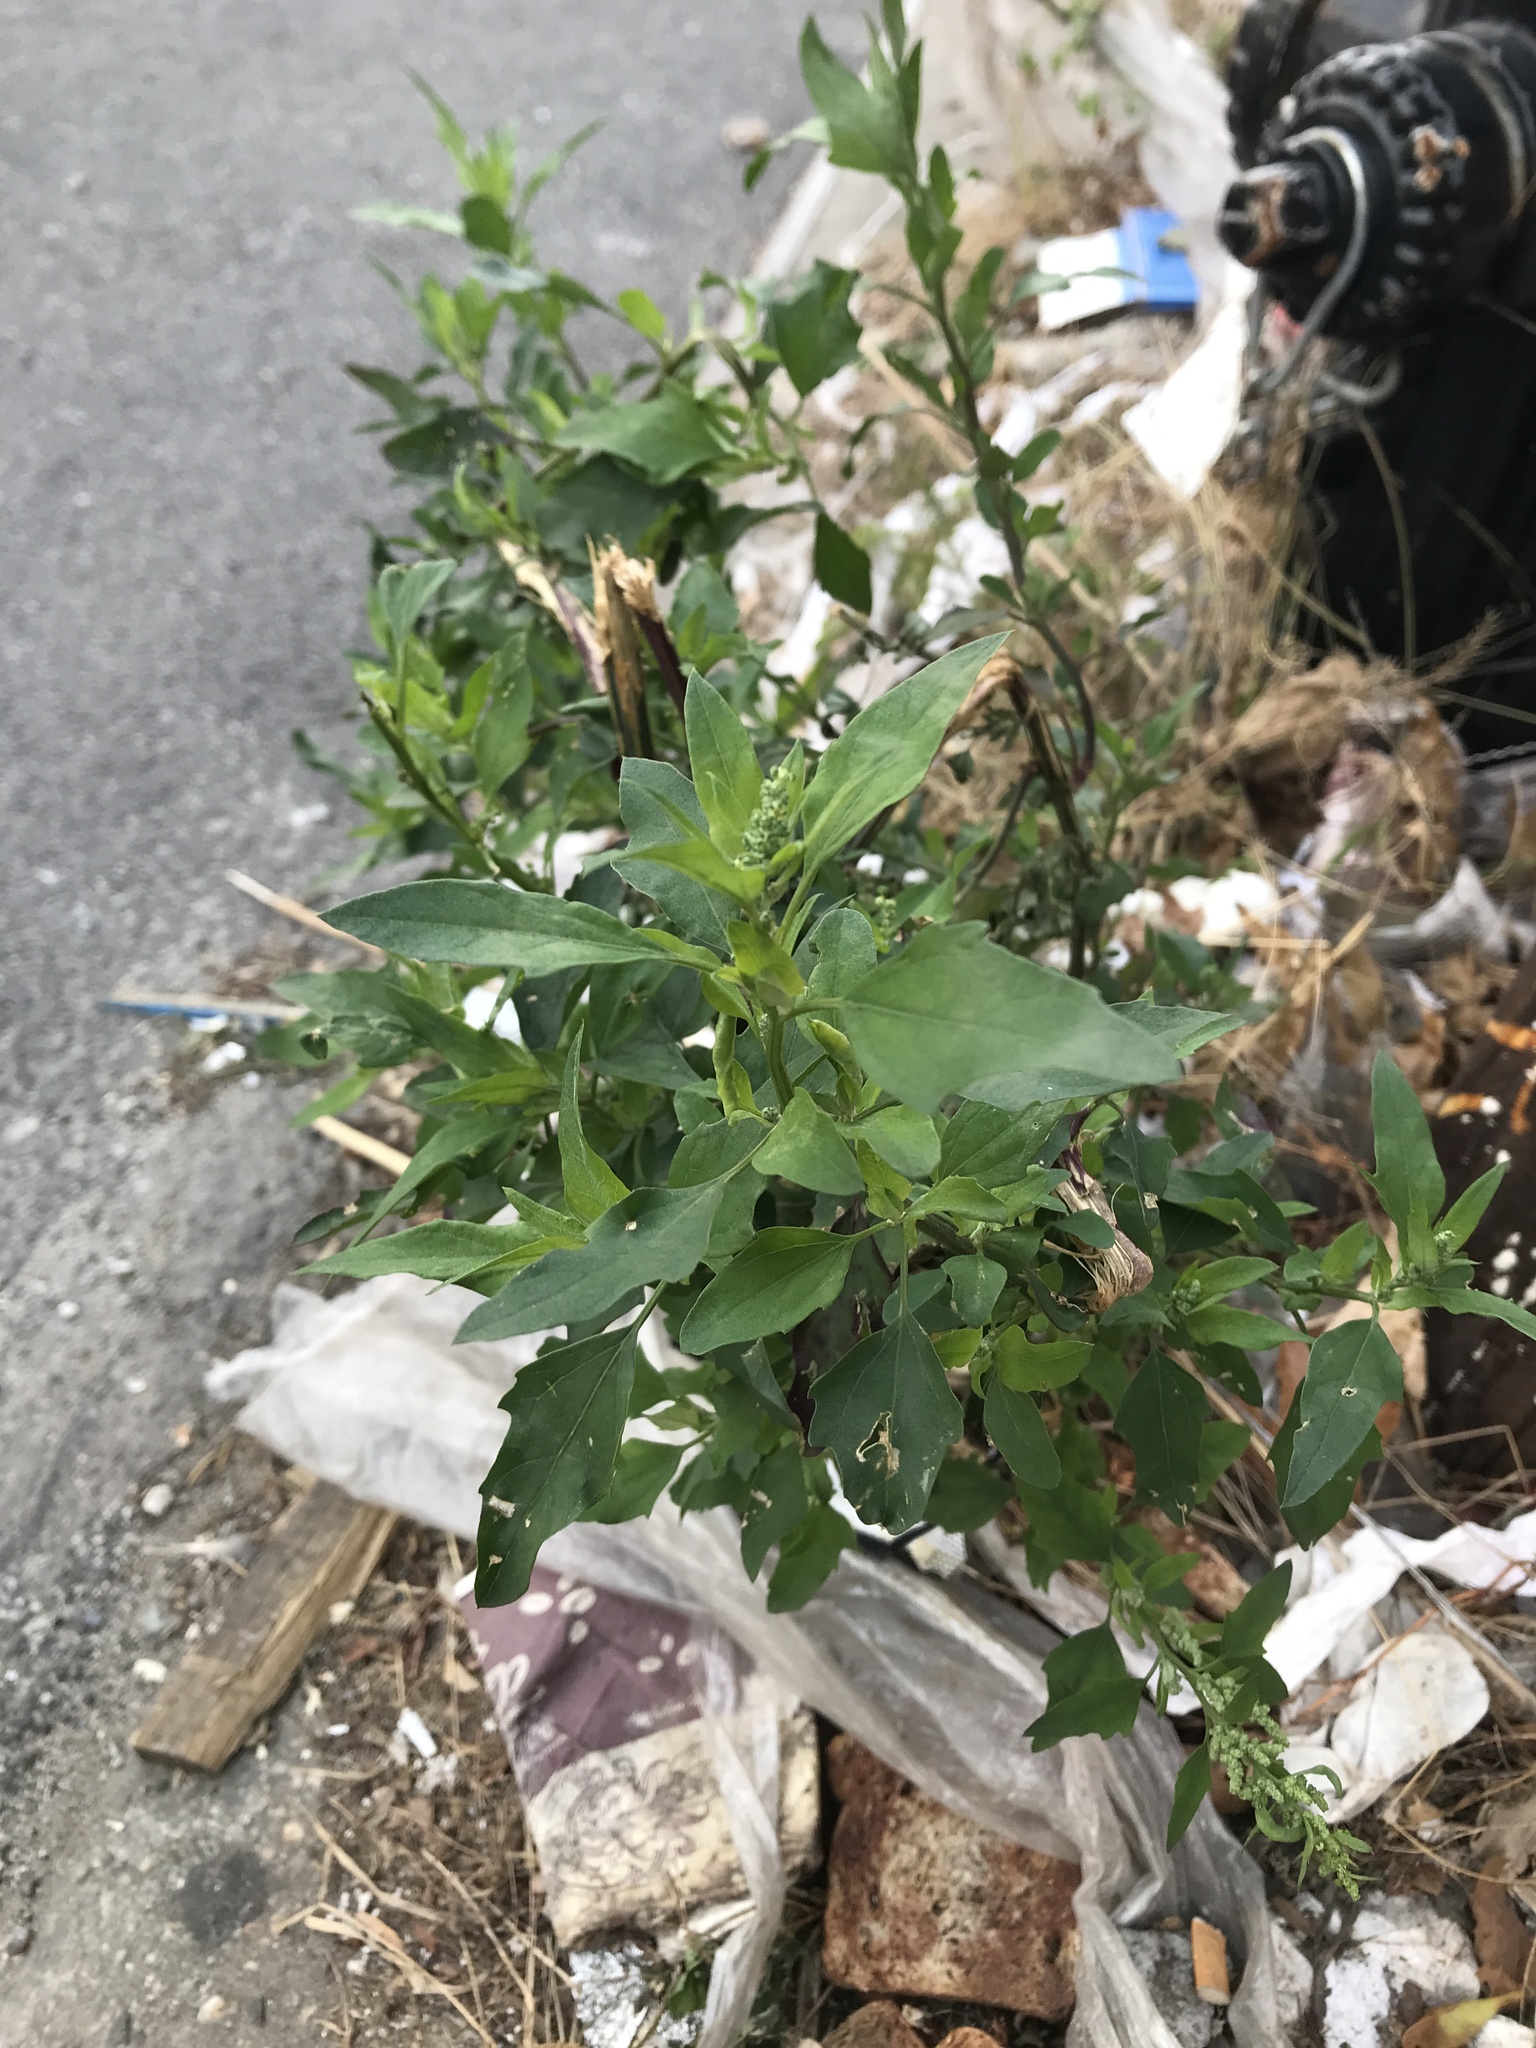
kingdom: Plantae
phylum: Tracheophyta
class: Magnoliopsida
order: Caryophyllales
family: Amaranthaceae
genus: Chenopodium
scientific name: Chenopodium album
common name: Fat-hen
